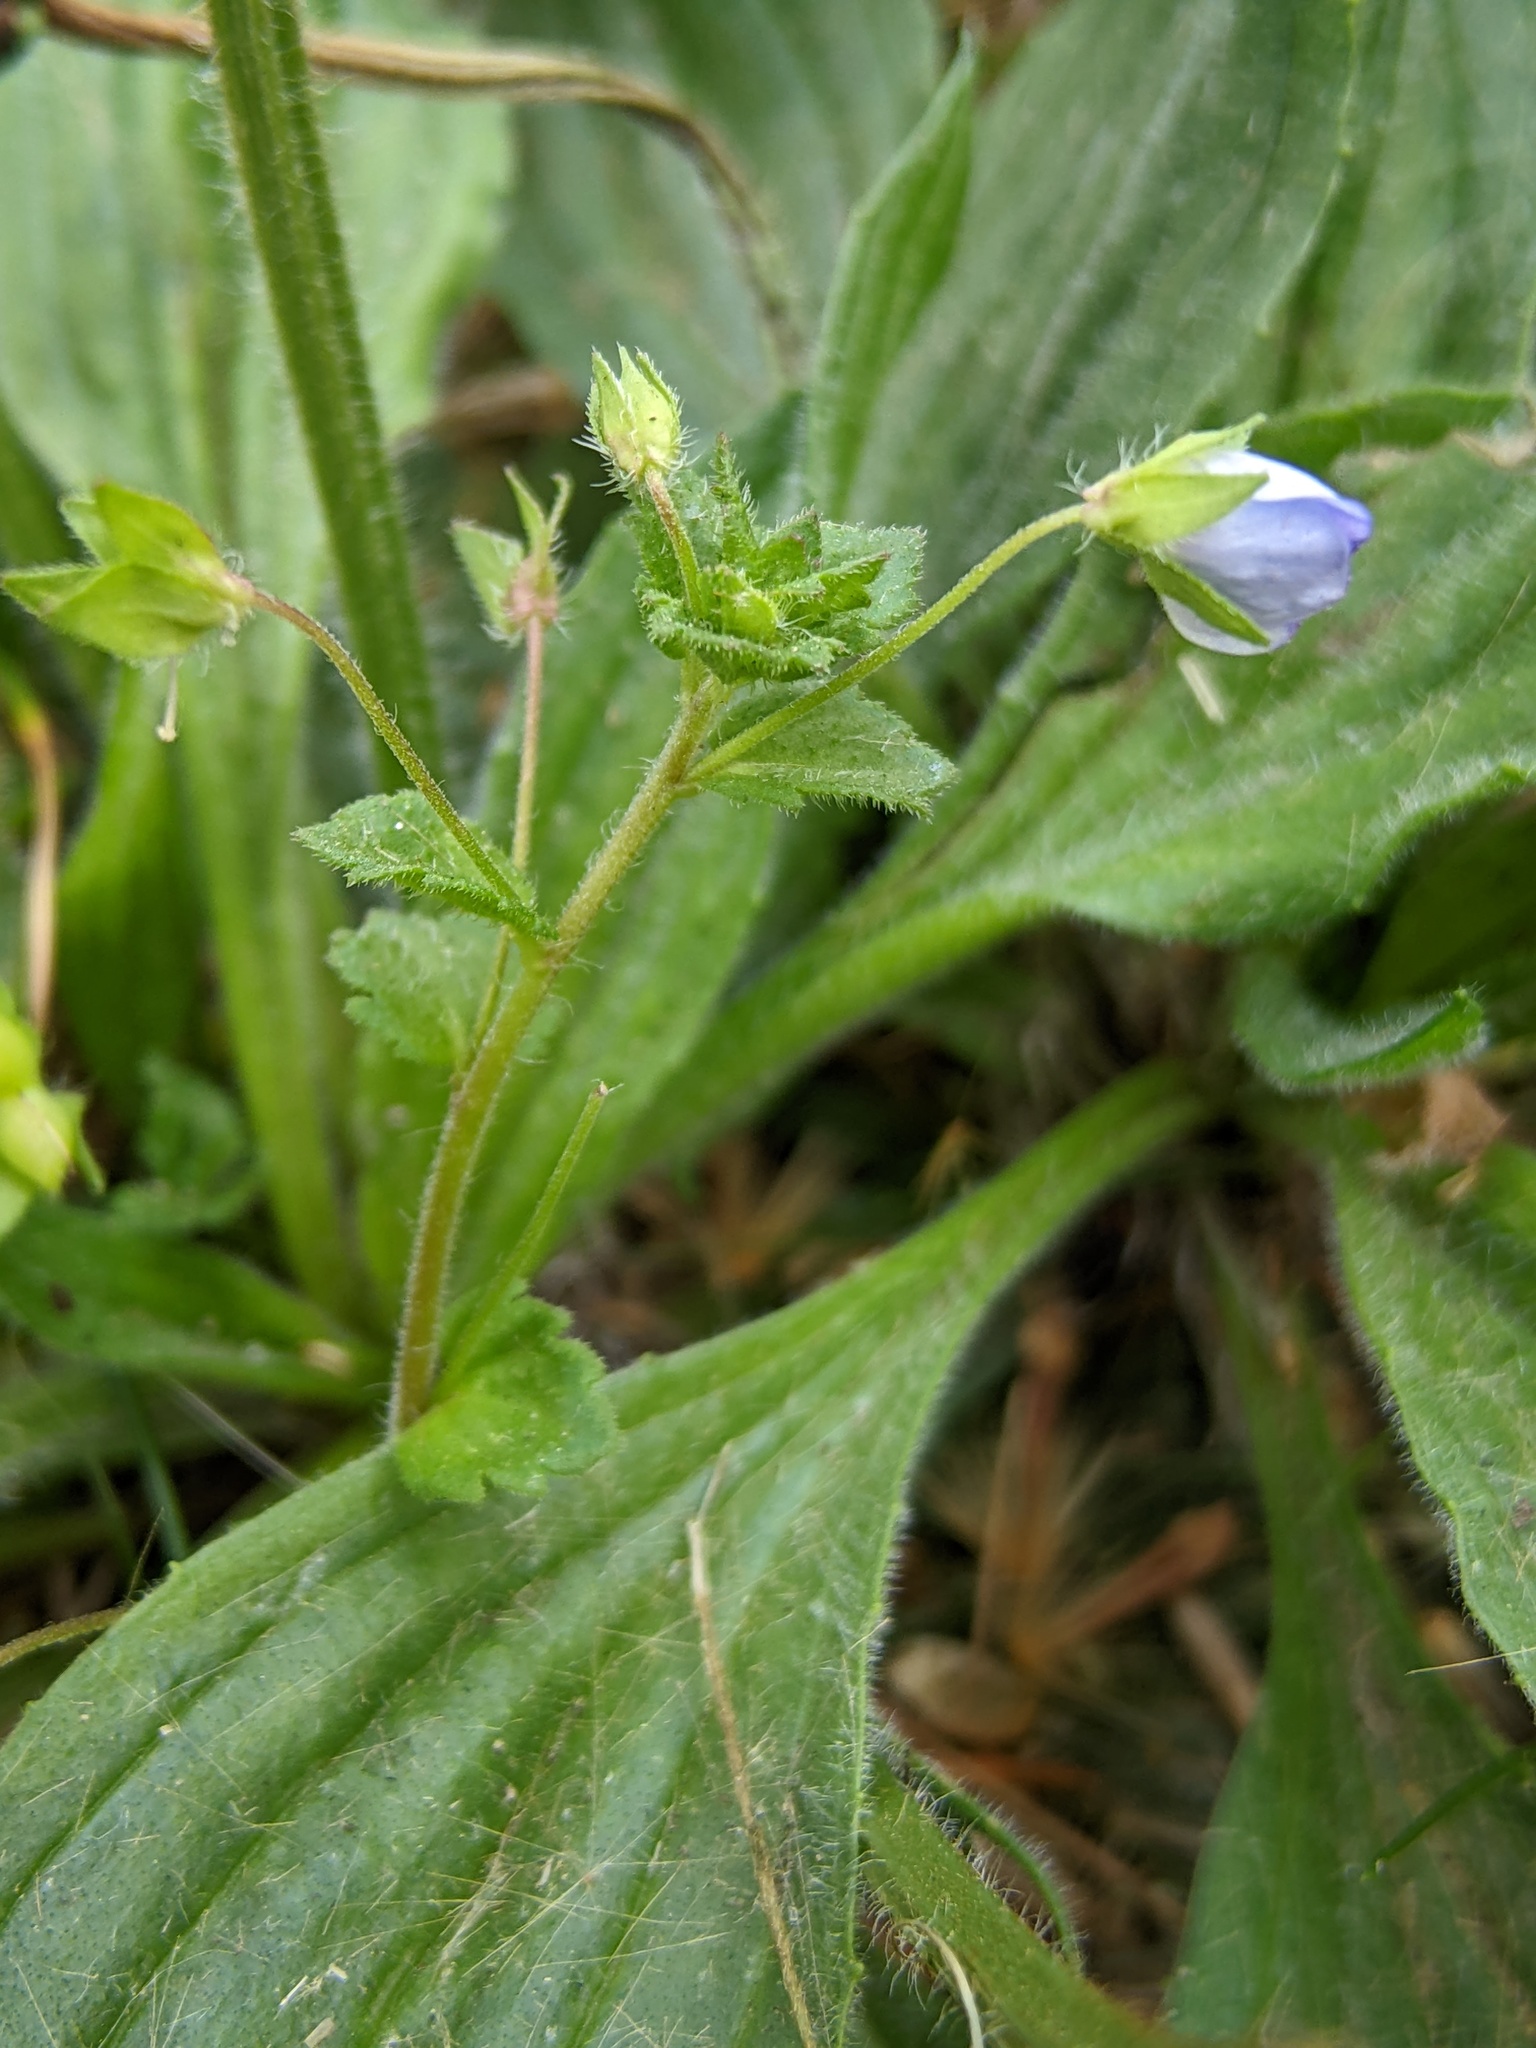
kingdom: Plantae
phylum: Tracheophyta
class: Magnoliopsida
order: Lamiales
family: Plantaginaceae
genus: Veronica
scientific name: Veronica persica
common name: Common field-speedwell
